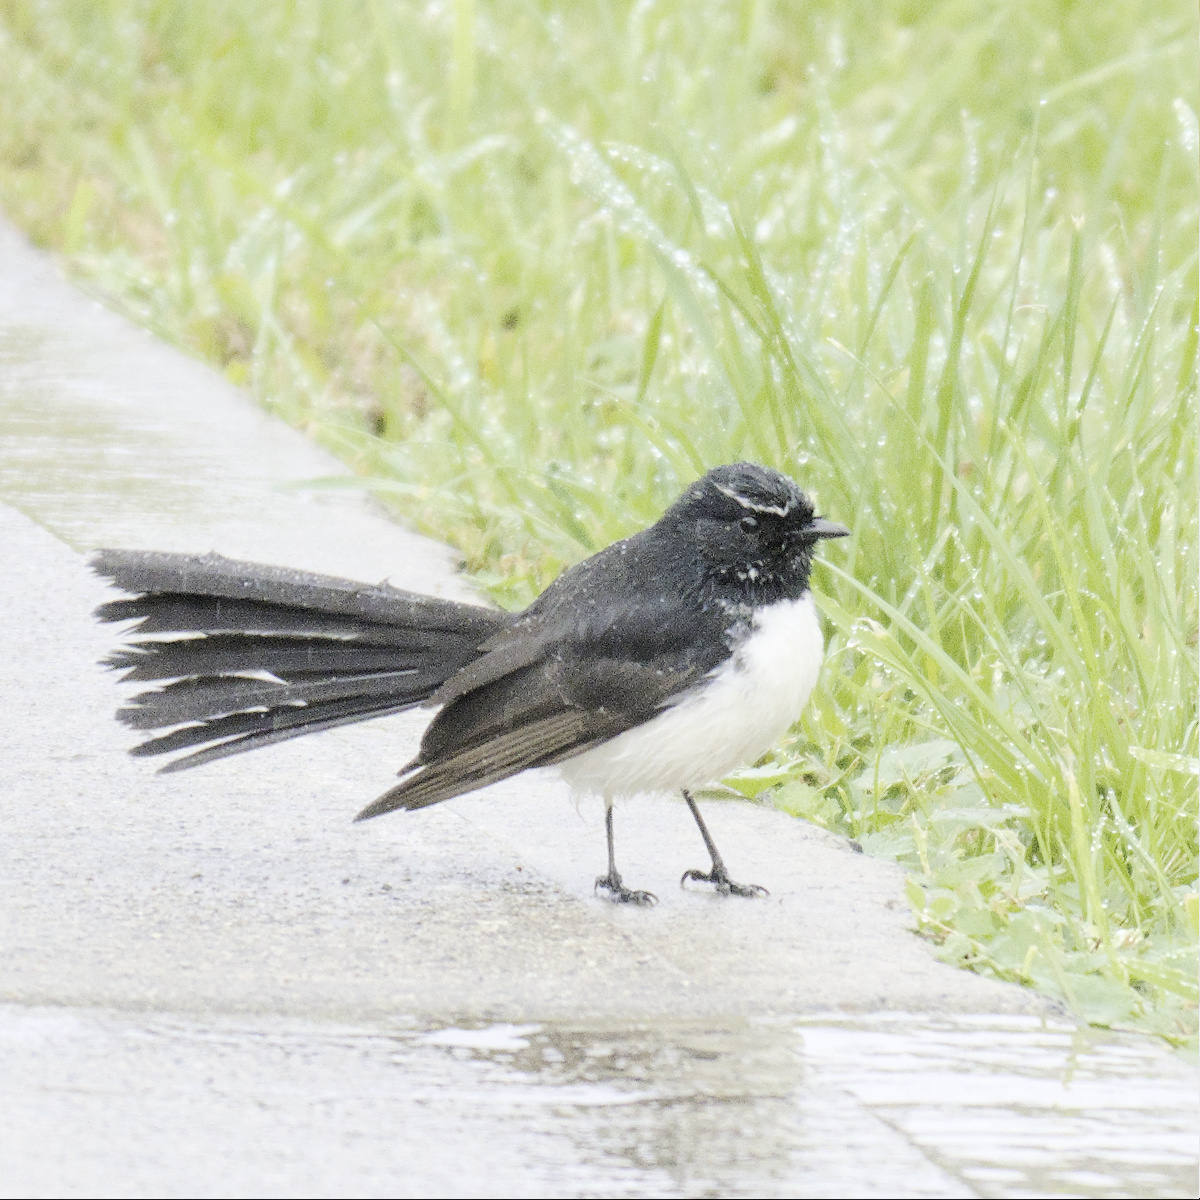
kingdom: Animalia
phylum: Chordata
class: Aves
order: Passeriformes
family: Rhipiduridae
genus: Rhipidura
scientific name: Rhipidura leucophrys
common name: Willie wagtail
